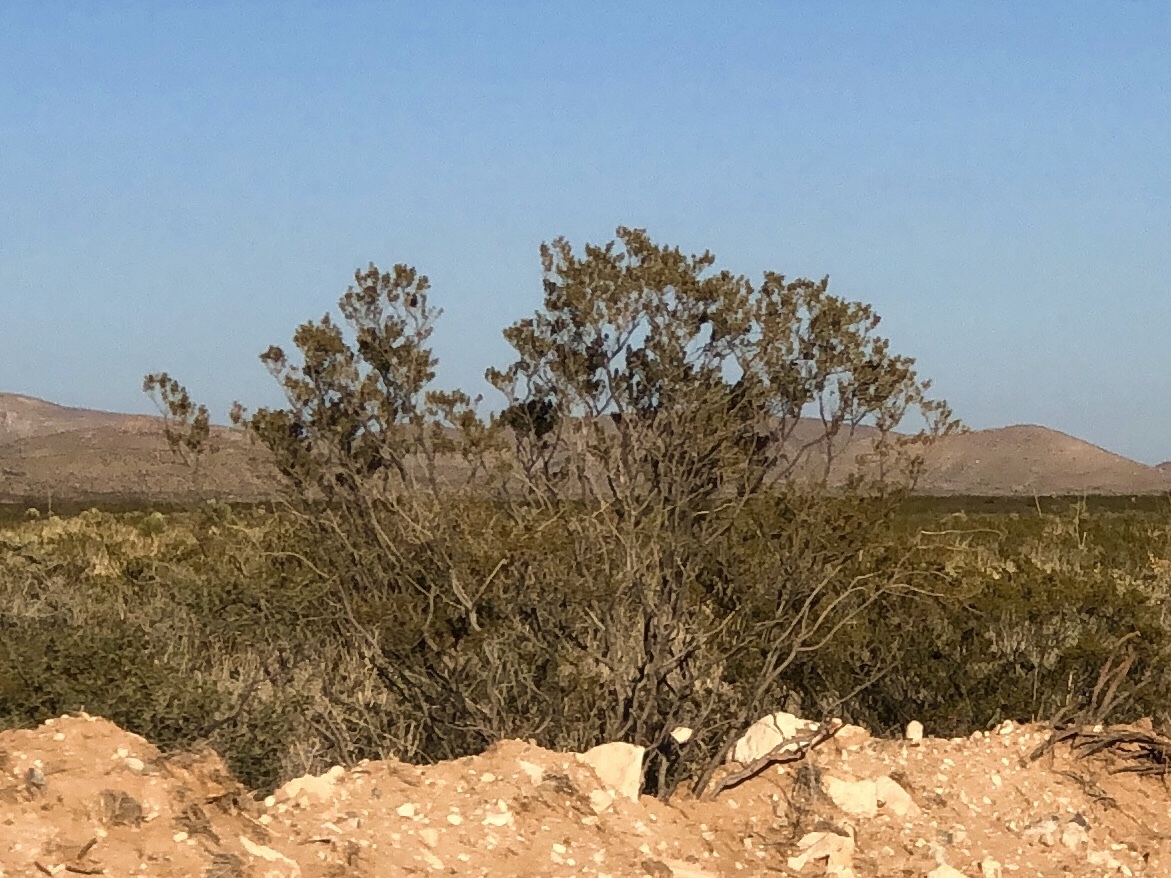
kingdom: Plantae
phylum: Tracheophyta
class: Magnoliopsida
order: Zygophyllales
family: Zygophyllaceae
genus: Larrea
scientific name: Larrea tridentata
